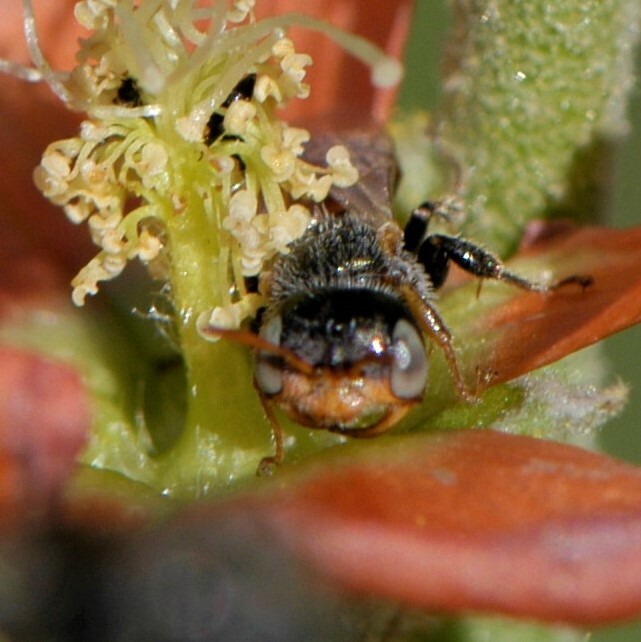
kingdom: Animalia
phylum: Arthropoda
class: Insecta
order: Hymenoptera
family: Andrenidae
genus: Macrotera
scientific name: Macrotera latior
